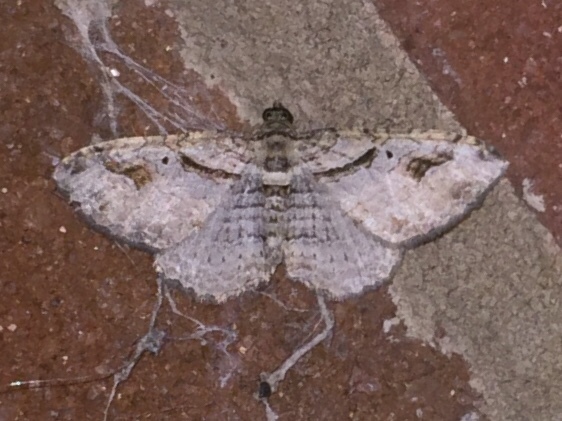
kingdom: Animalia
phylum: Arthropoda
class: Insecta
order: Lepidoptera
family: Geometridae
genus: Costaconvexa
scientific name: Costaconvexa centrostrigaria
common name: Bent-line carpet
